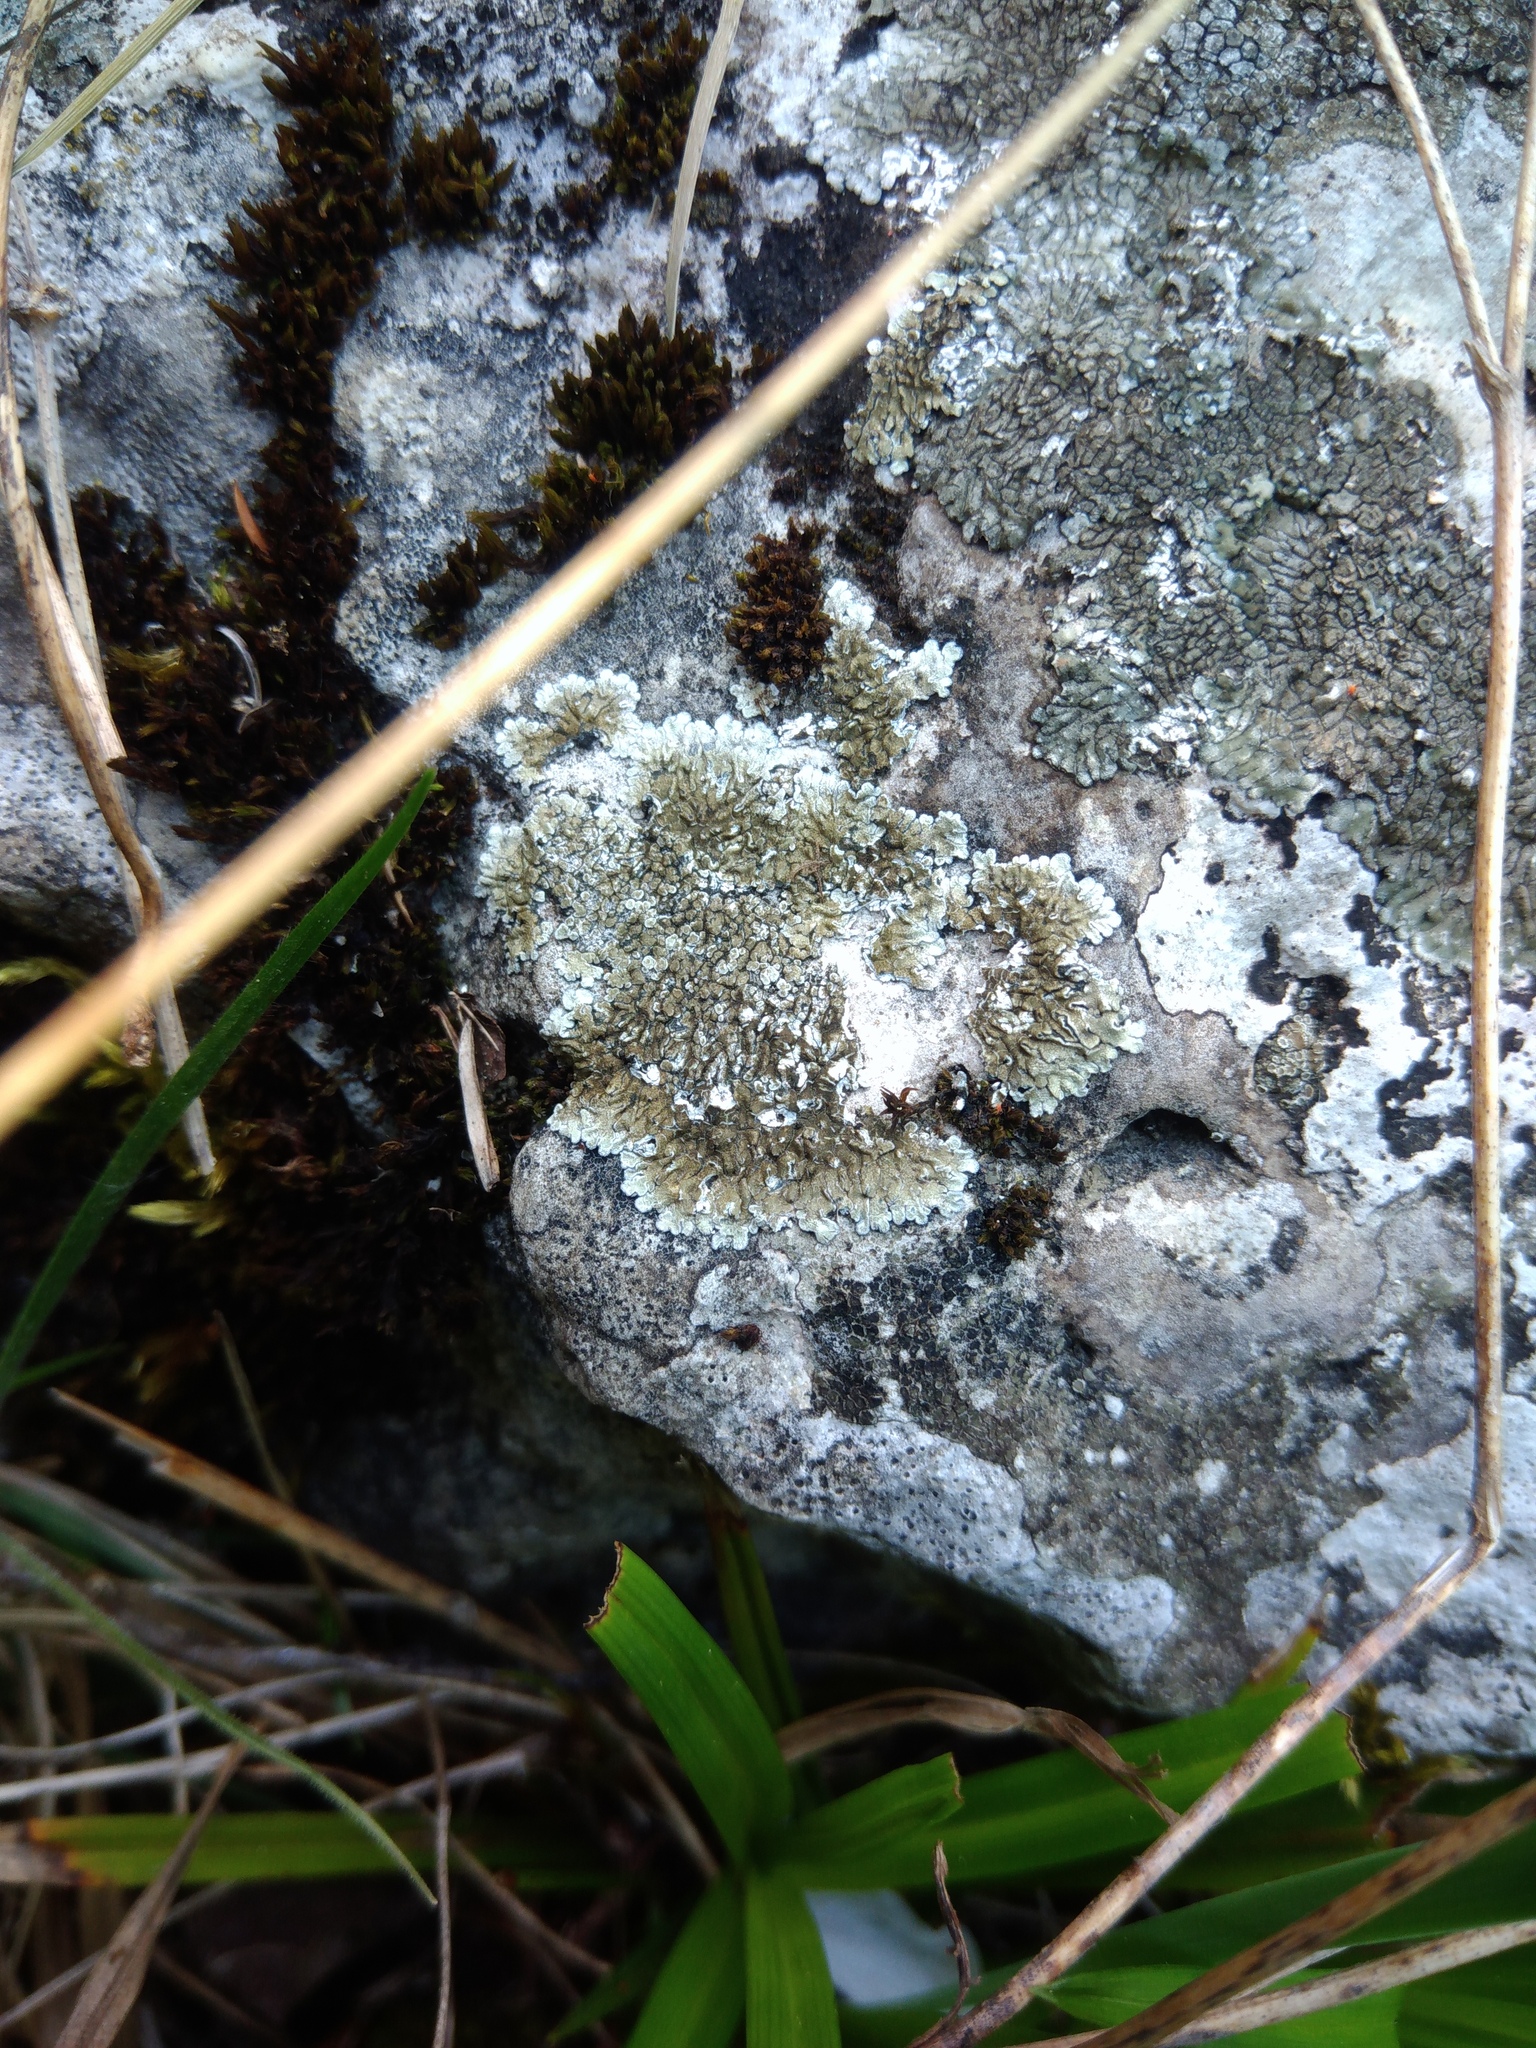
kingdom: Fungi
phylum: Ascomycota
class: Lecanoromycetes
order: Lecanorales
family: Lecanoraceae
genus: Protoparmeliopsis
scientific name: Protoparmeliopsis muralis
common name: Stonewall rim lichen
